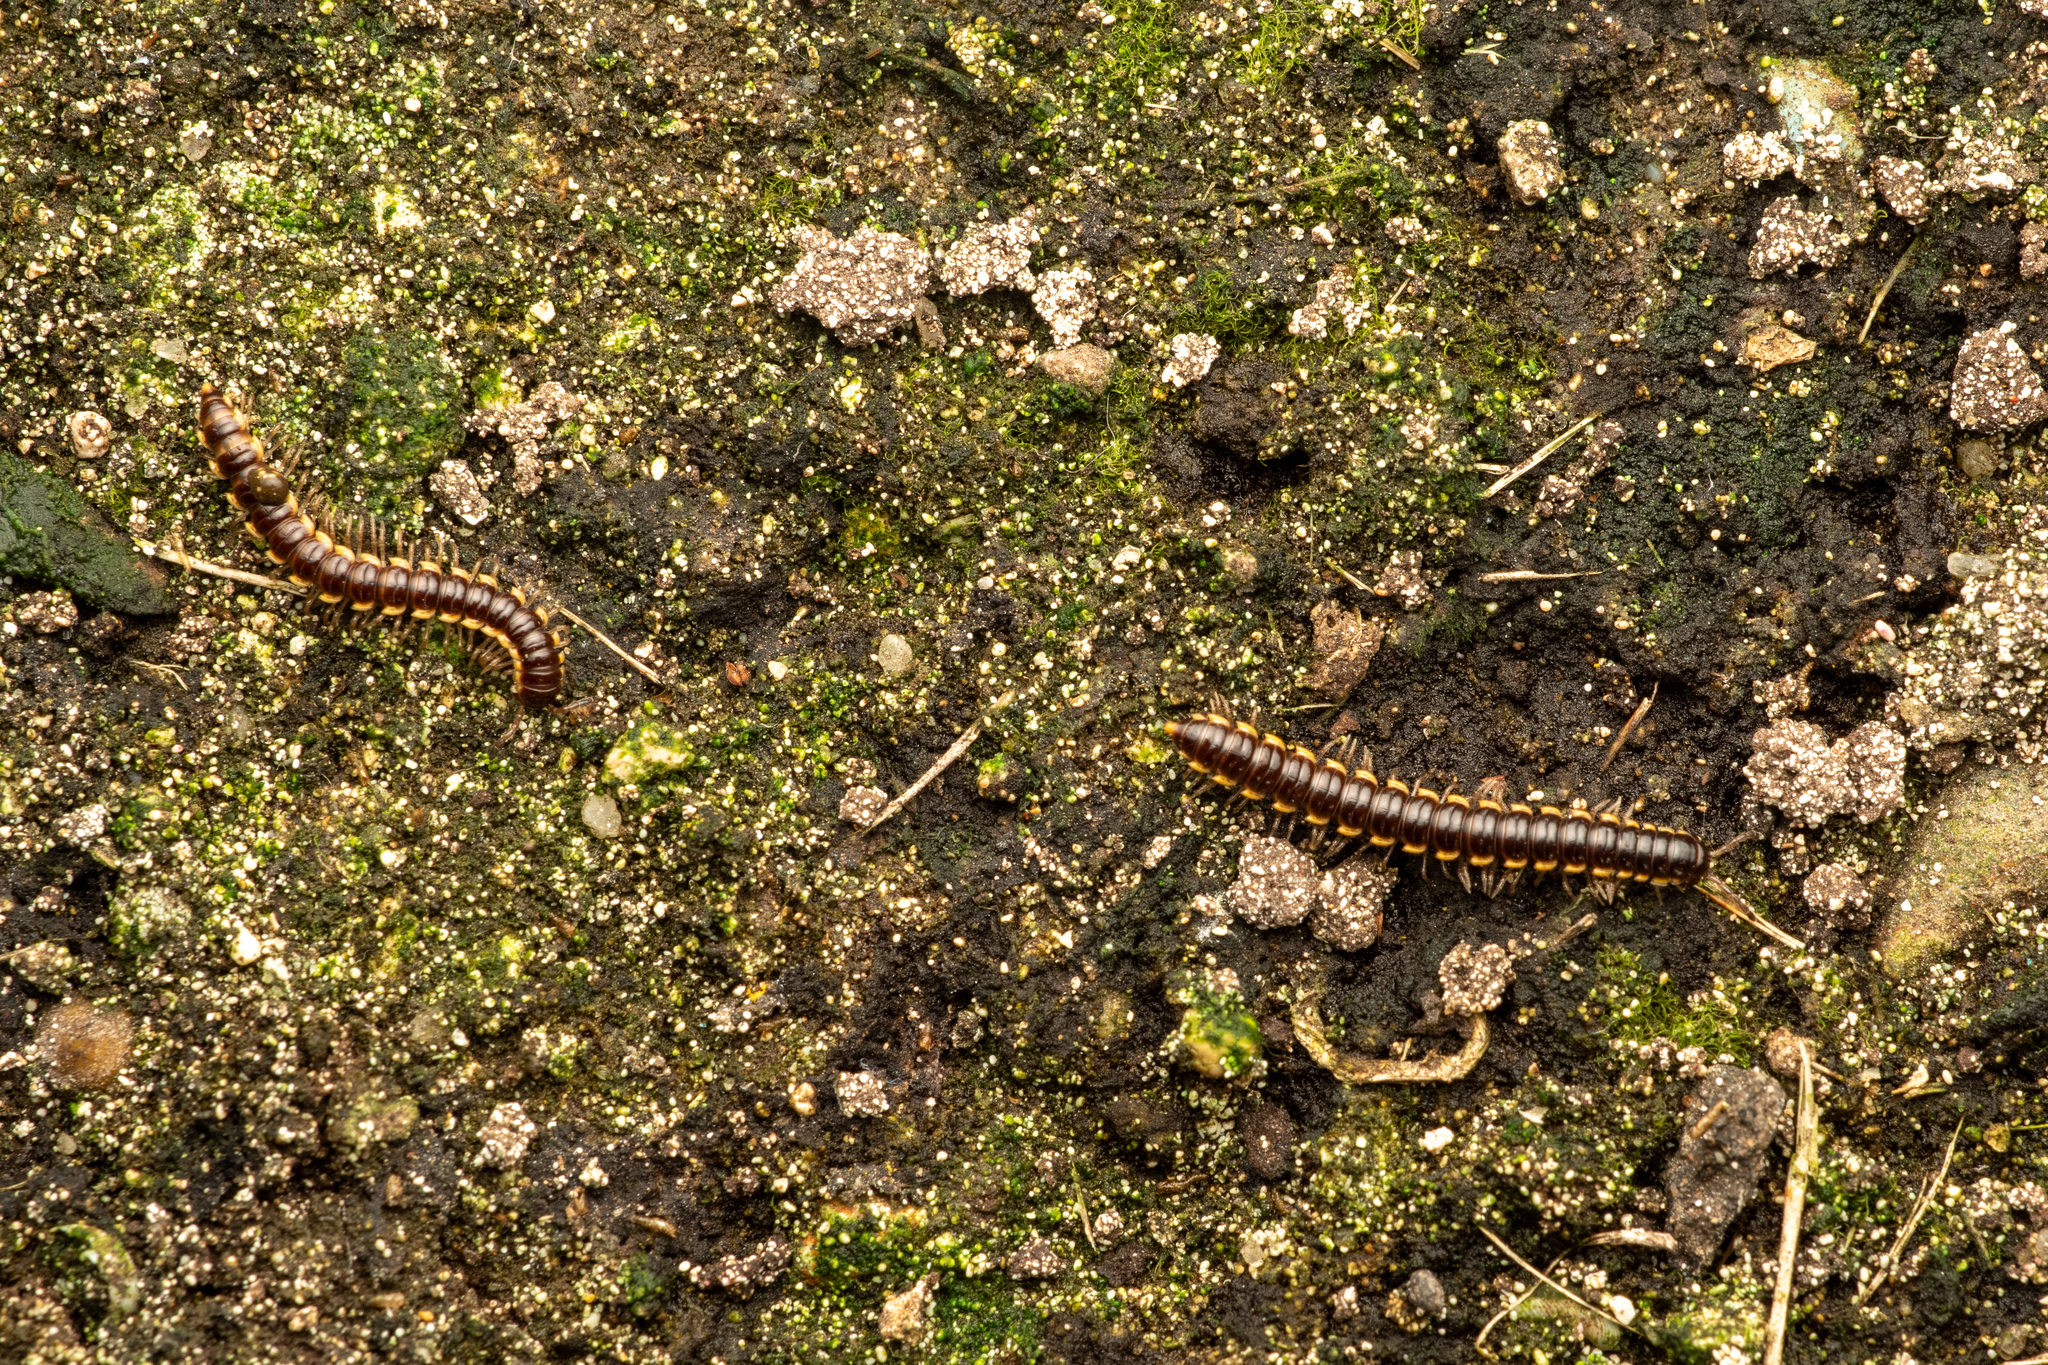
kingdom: Animalia
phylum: Arthropoda
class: Diplopoda
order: Polydesmida
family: Paradoxosomatidae
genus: Orthomorpha
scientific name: Orthomorpha coarctata
